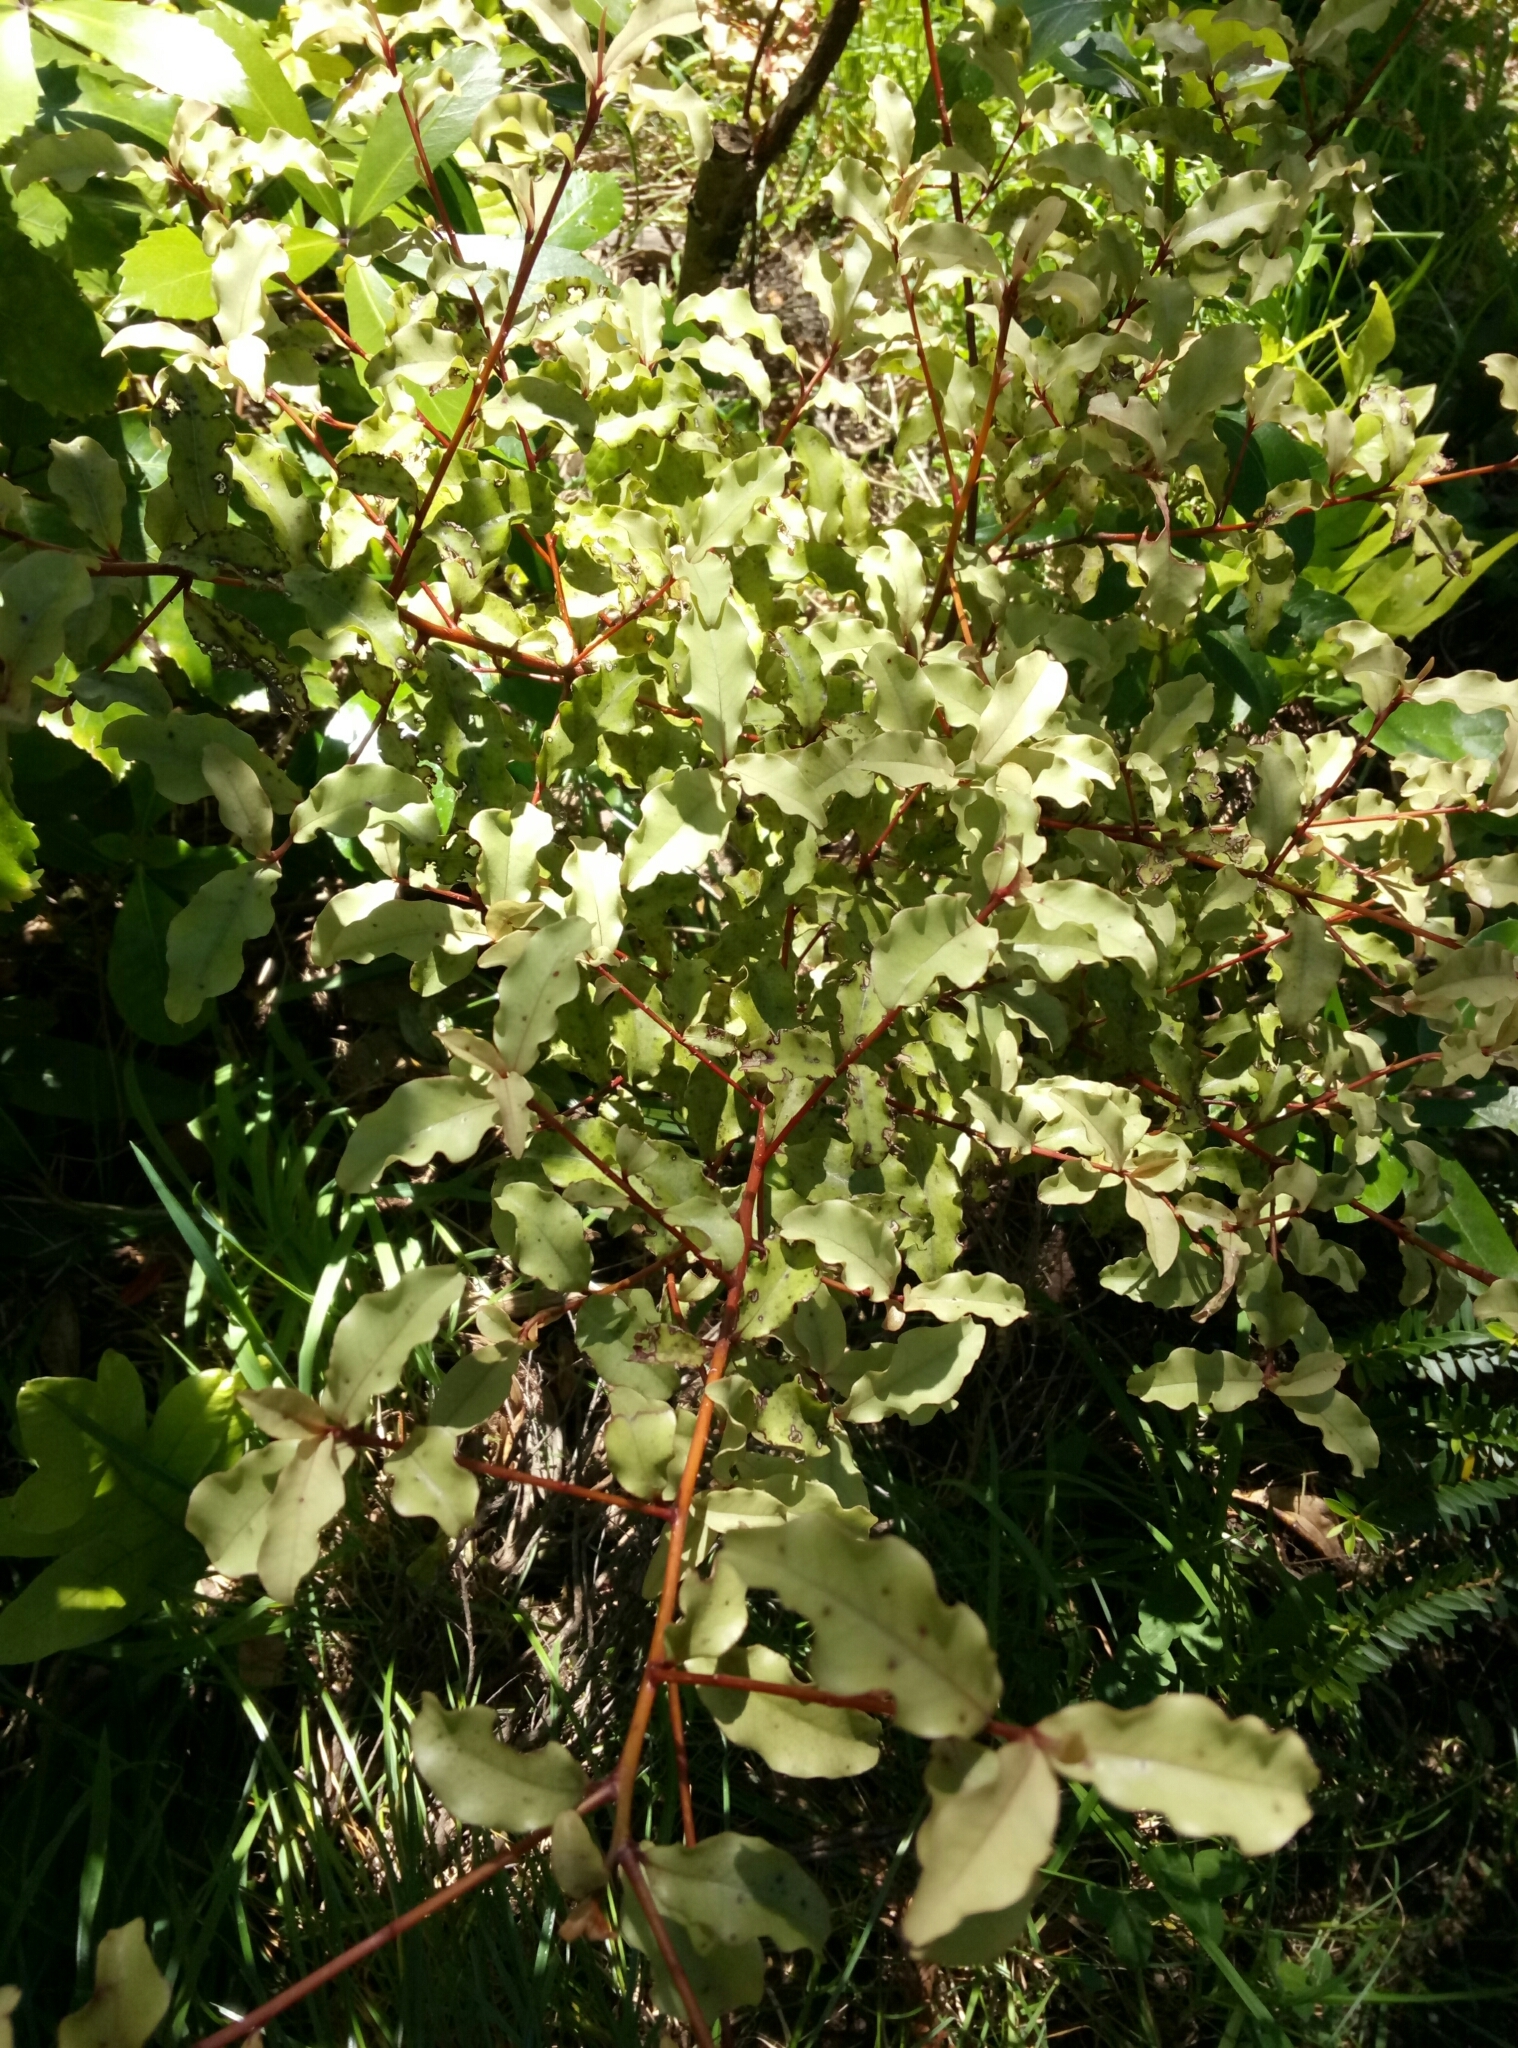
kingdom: Plantae
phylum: Tracheophyta
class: Magnoliopsida
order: Ericales
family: Primulaceae
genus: Myrsine
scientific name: Myrsine australis
